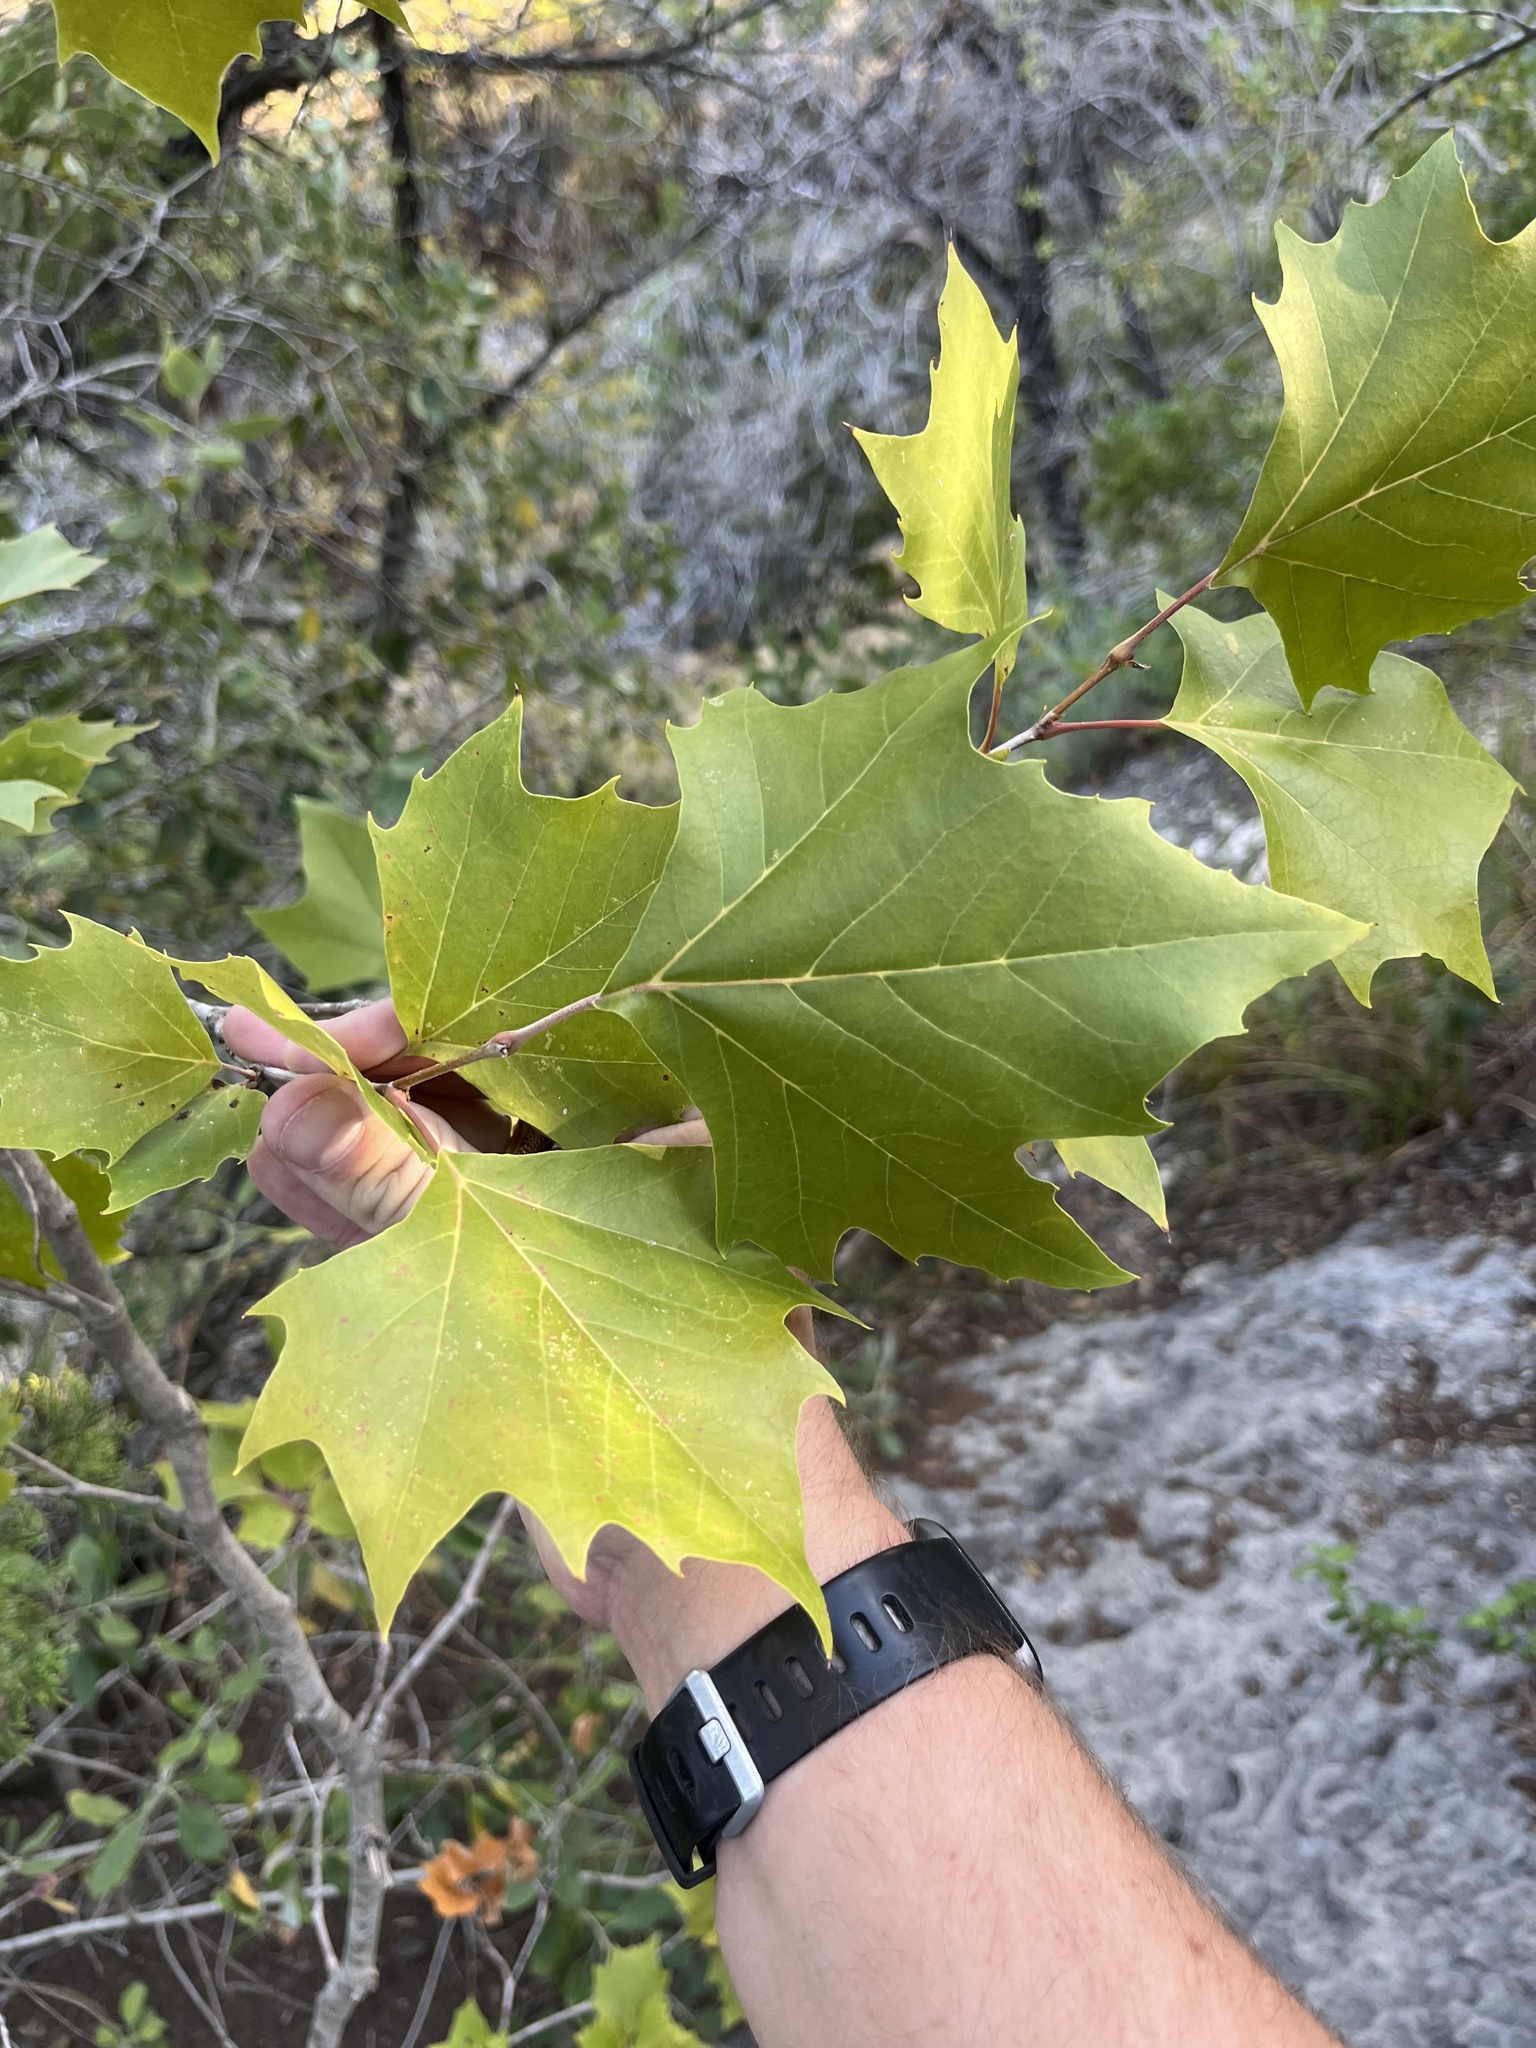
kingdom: Plantae
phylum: Tracheophyta
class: Magnoliopsida
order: Proteales
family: Platanaceae
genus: Platanus
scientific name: Platanus occidentalis
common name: American sycamore
